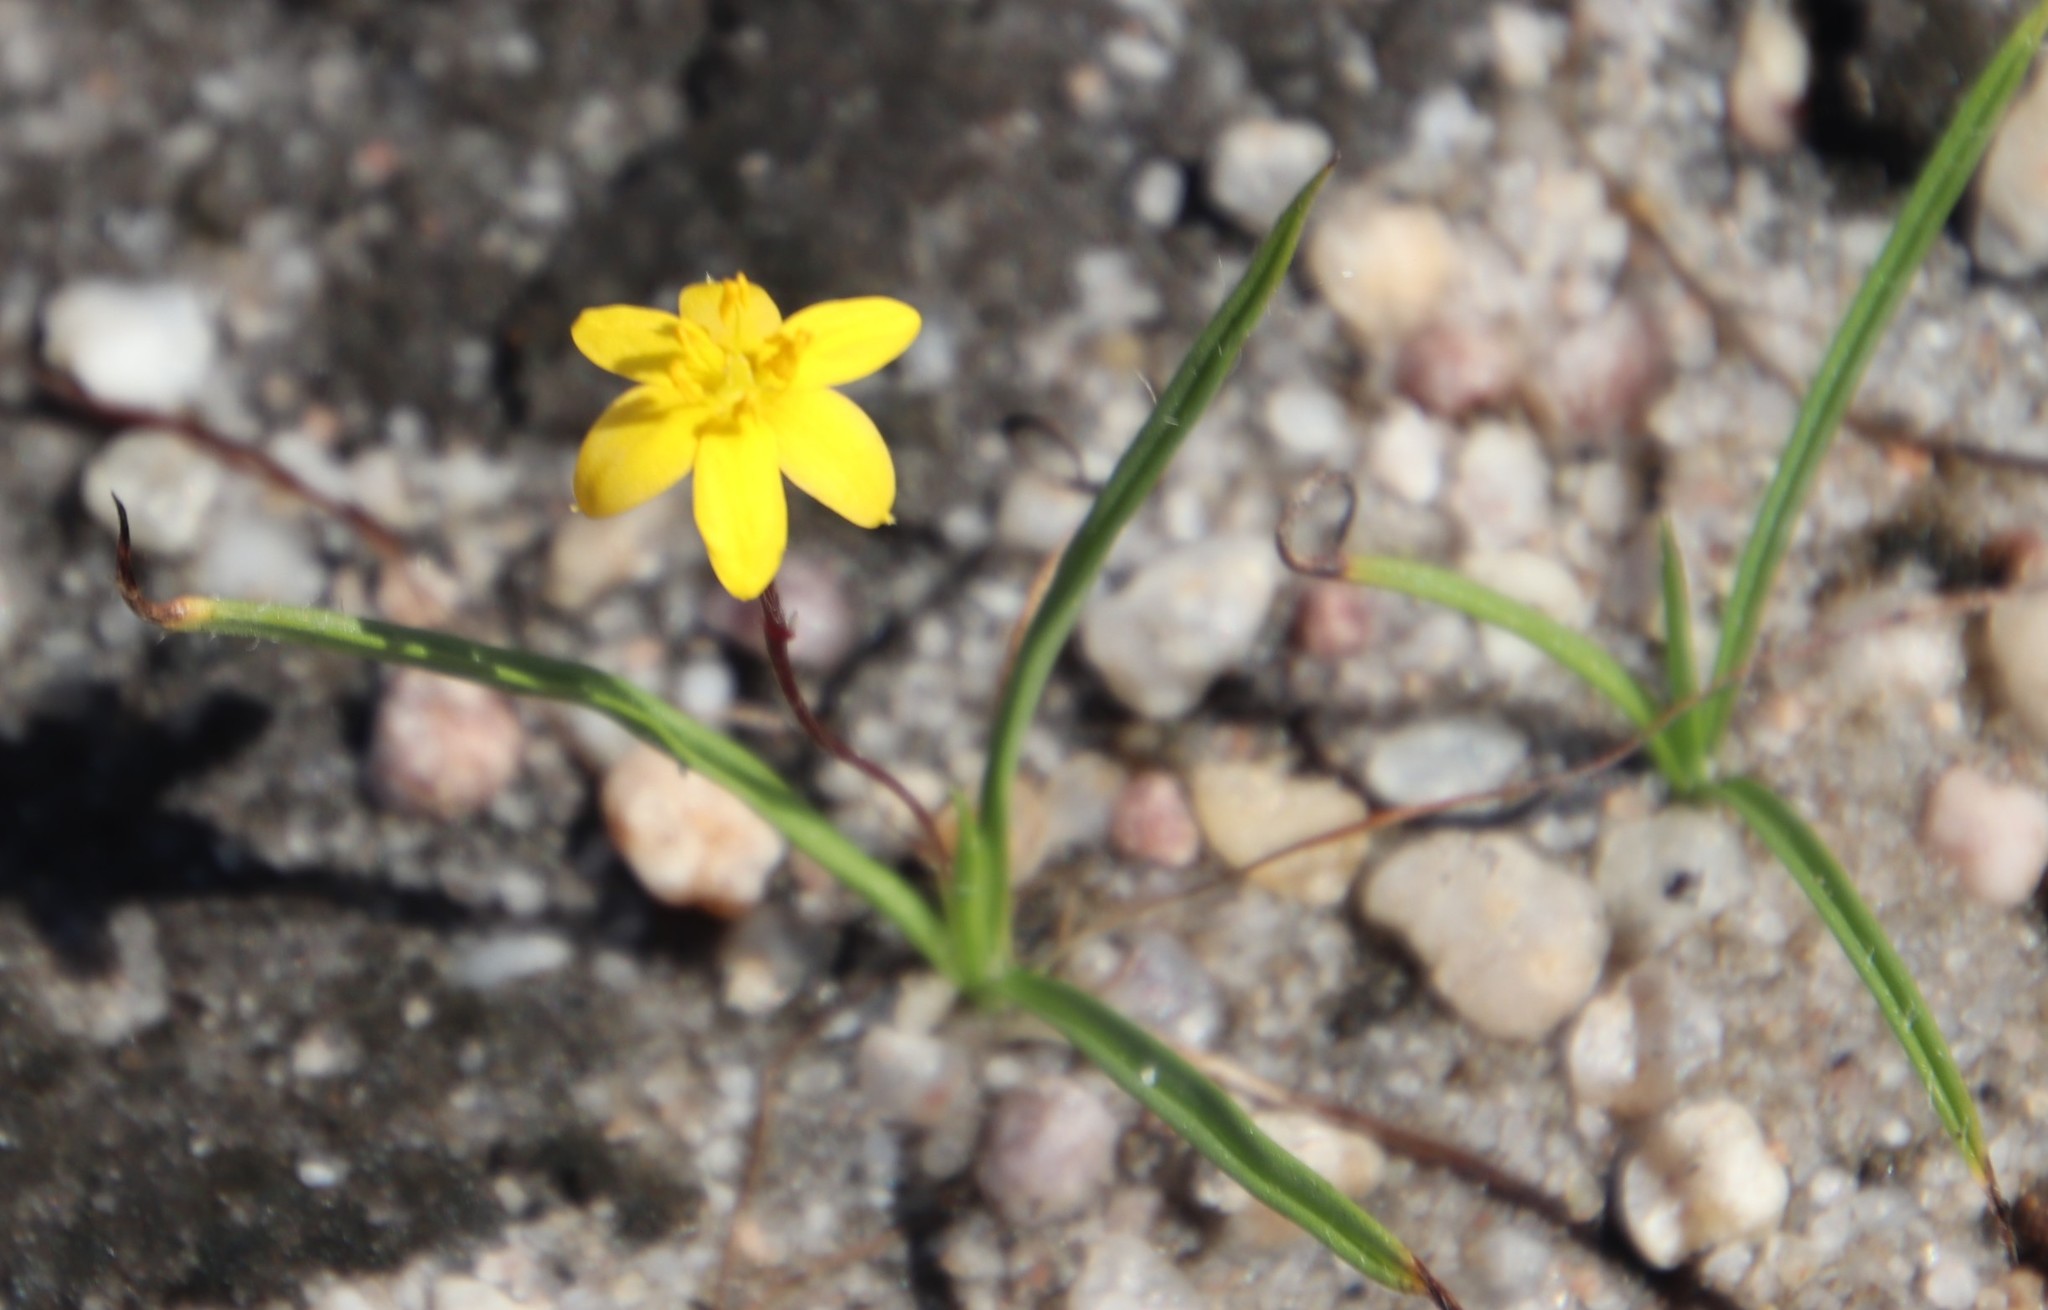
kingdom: Plantae
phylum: Tracheophyta
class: Liliopsida
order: Asparagales
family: Hypoxidaceae
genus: Hypoxis
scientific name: Hypoxis flanaganii
